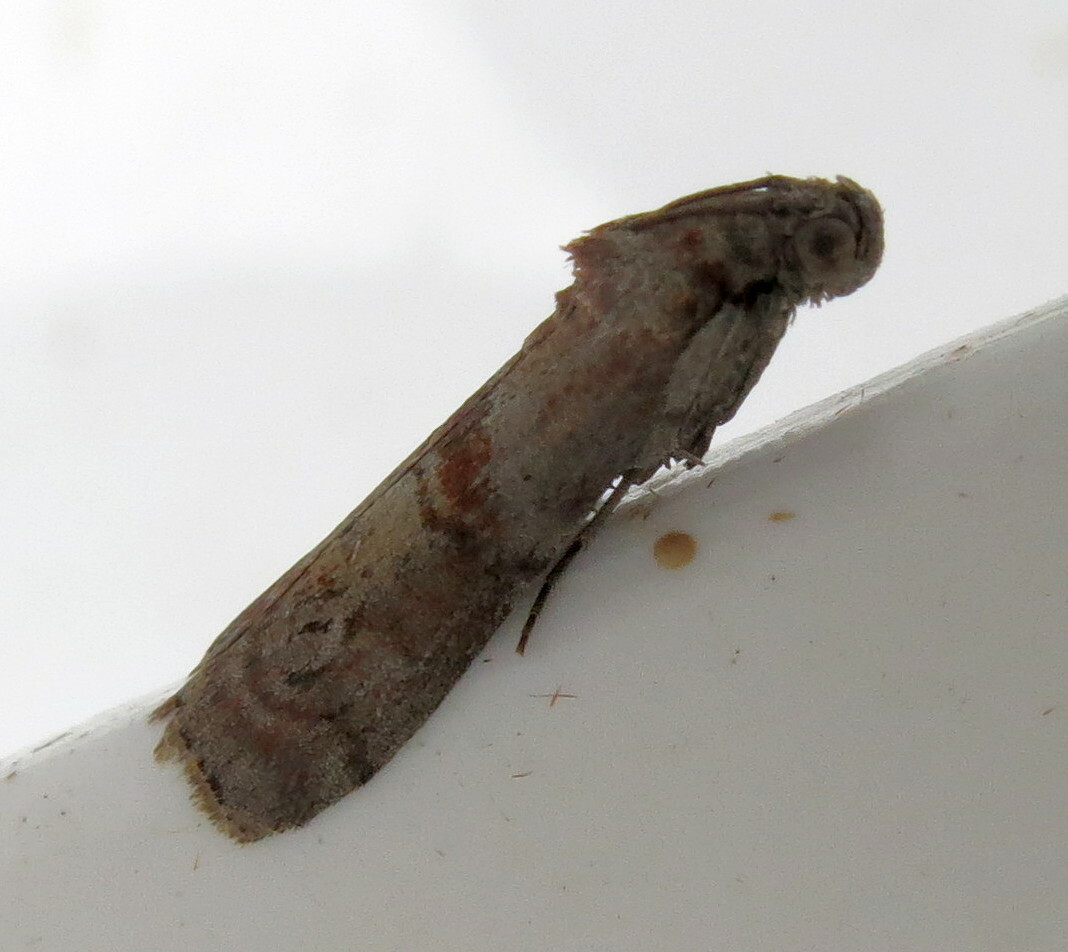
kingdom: Animalia
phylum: Arthropoda
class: Insecta
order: Lepidoptera
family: Pyralidae
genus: Phycita
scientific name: Phycita roborella
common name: Dotted oak knot-horn
